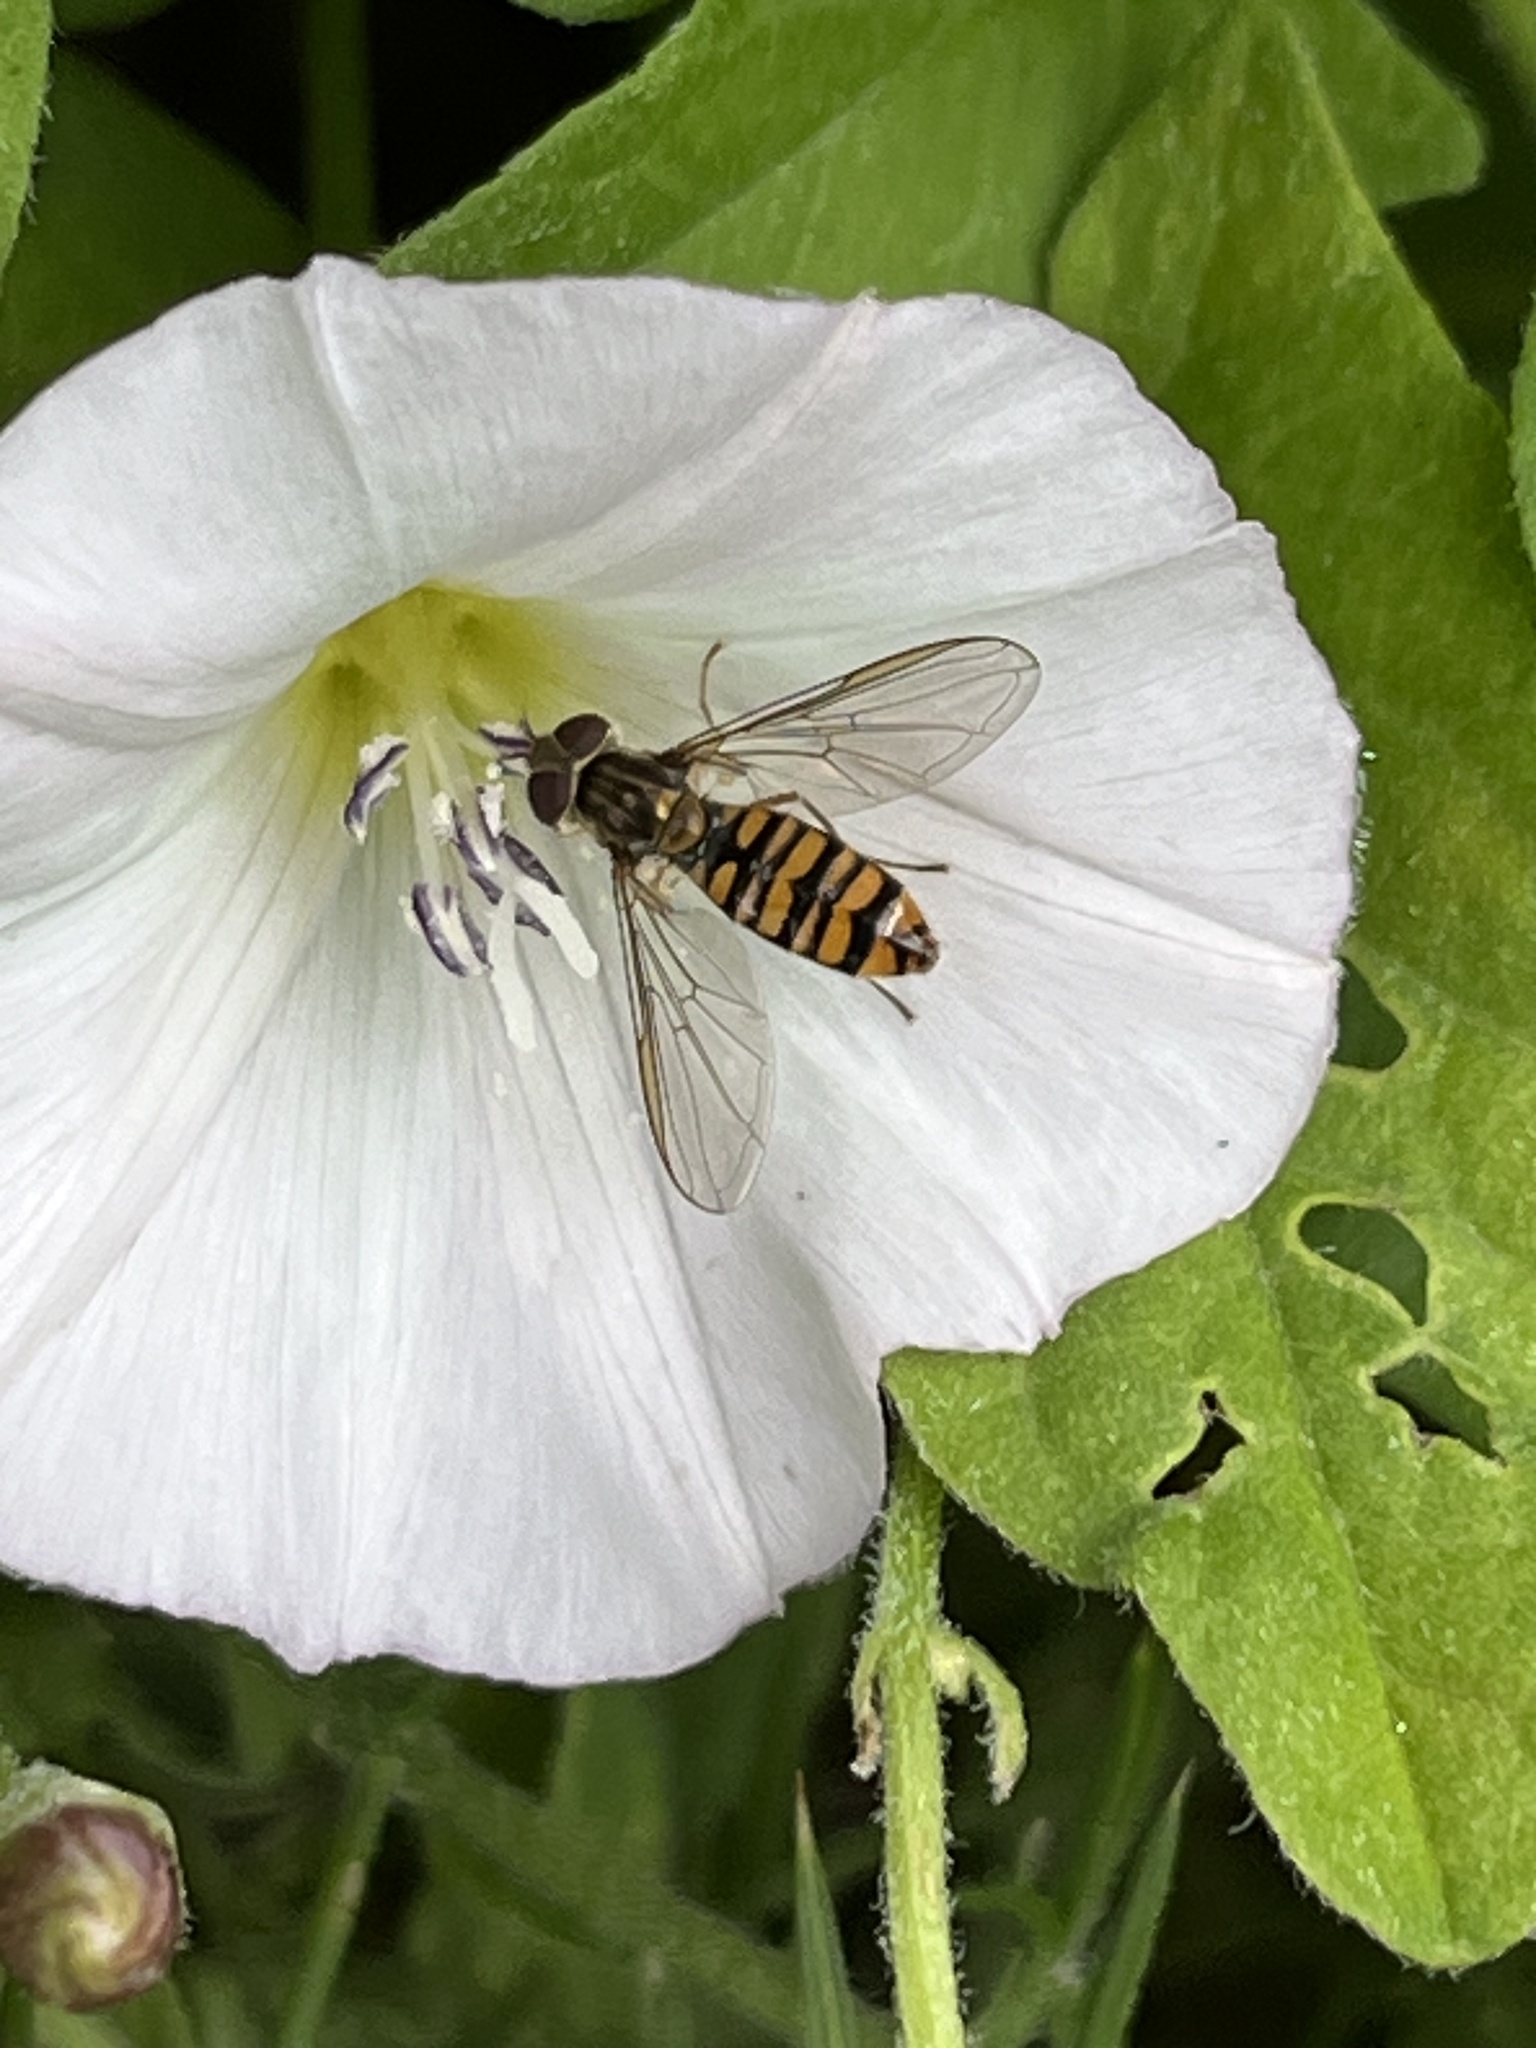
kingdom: Animalia
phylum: Arthropoda
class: Insecta
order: Diptera
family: Syrphidae
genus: Episyrphus
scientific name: Episyrphus balteatus
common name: Marmalade hoverfly
